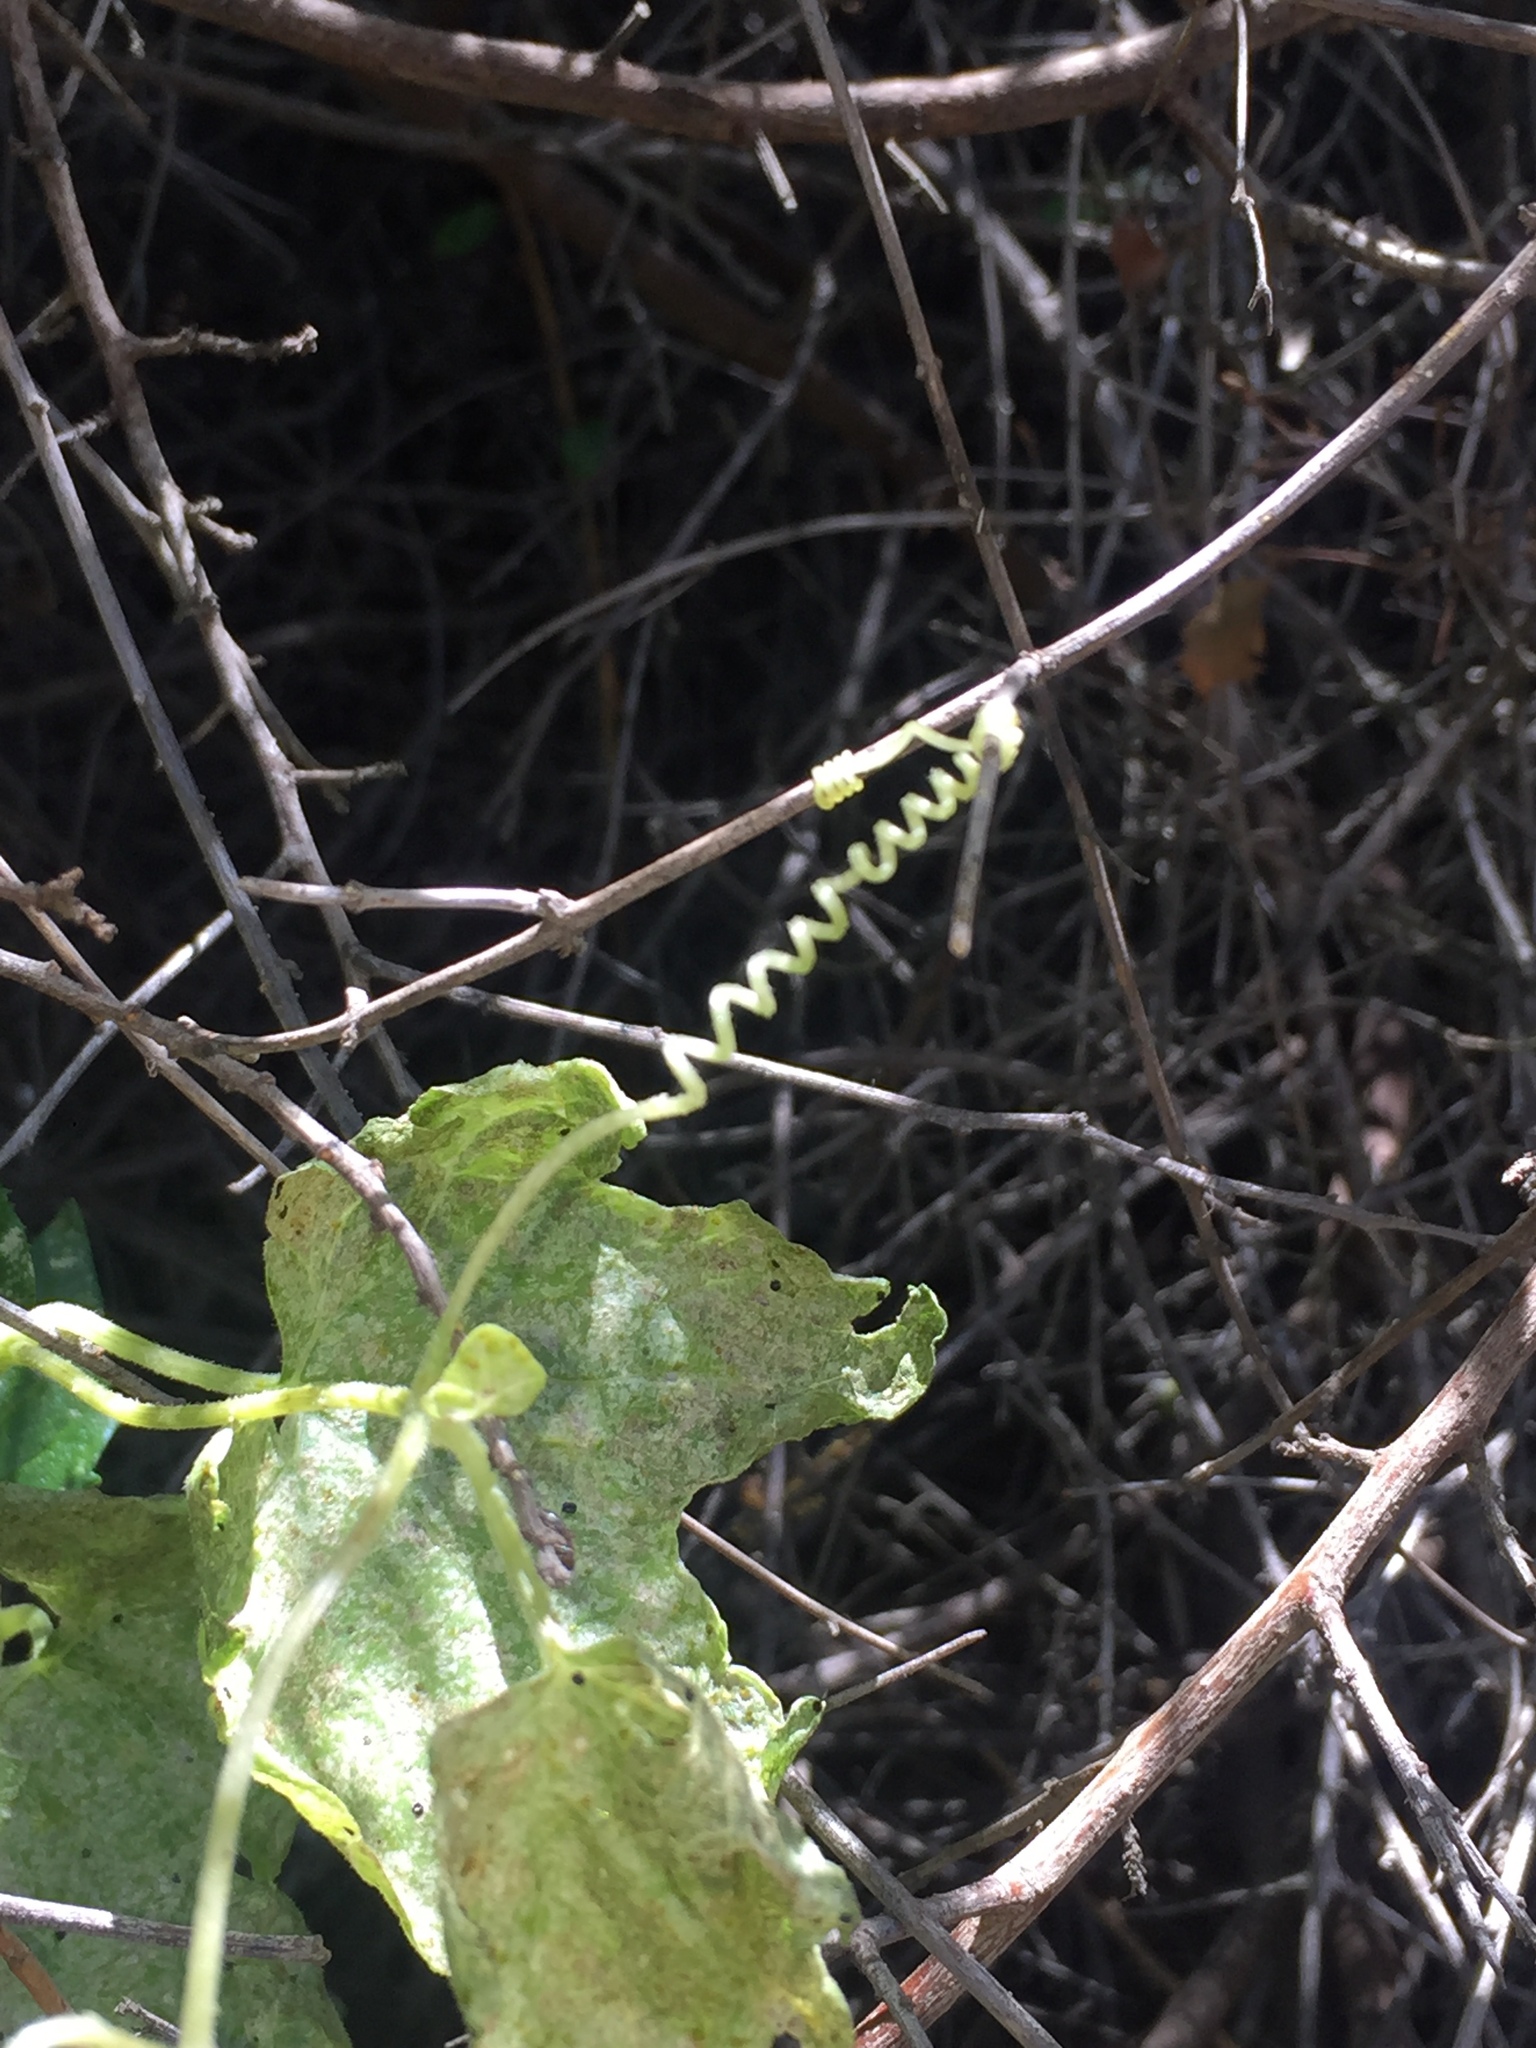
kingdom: Plantae
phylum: Tracheophyta
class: Magnoliopsida
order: Cucurbitales
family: Cucurbitaceae
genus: Marah
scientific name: Marah macrocarpa
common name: Cucamonga manroot
